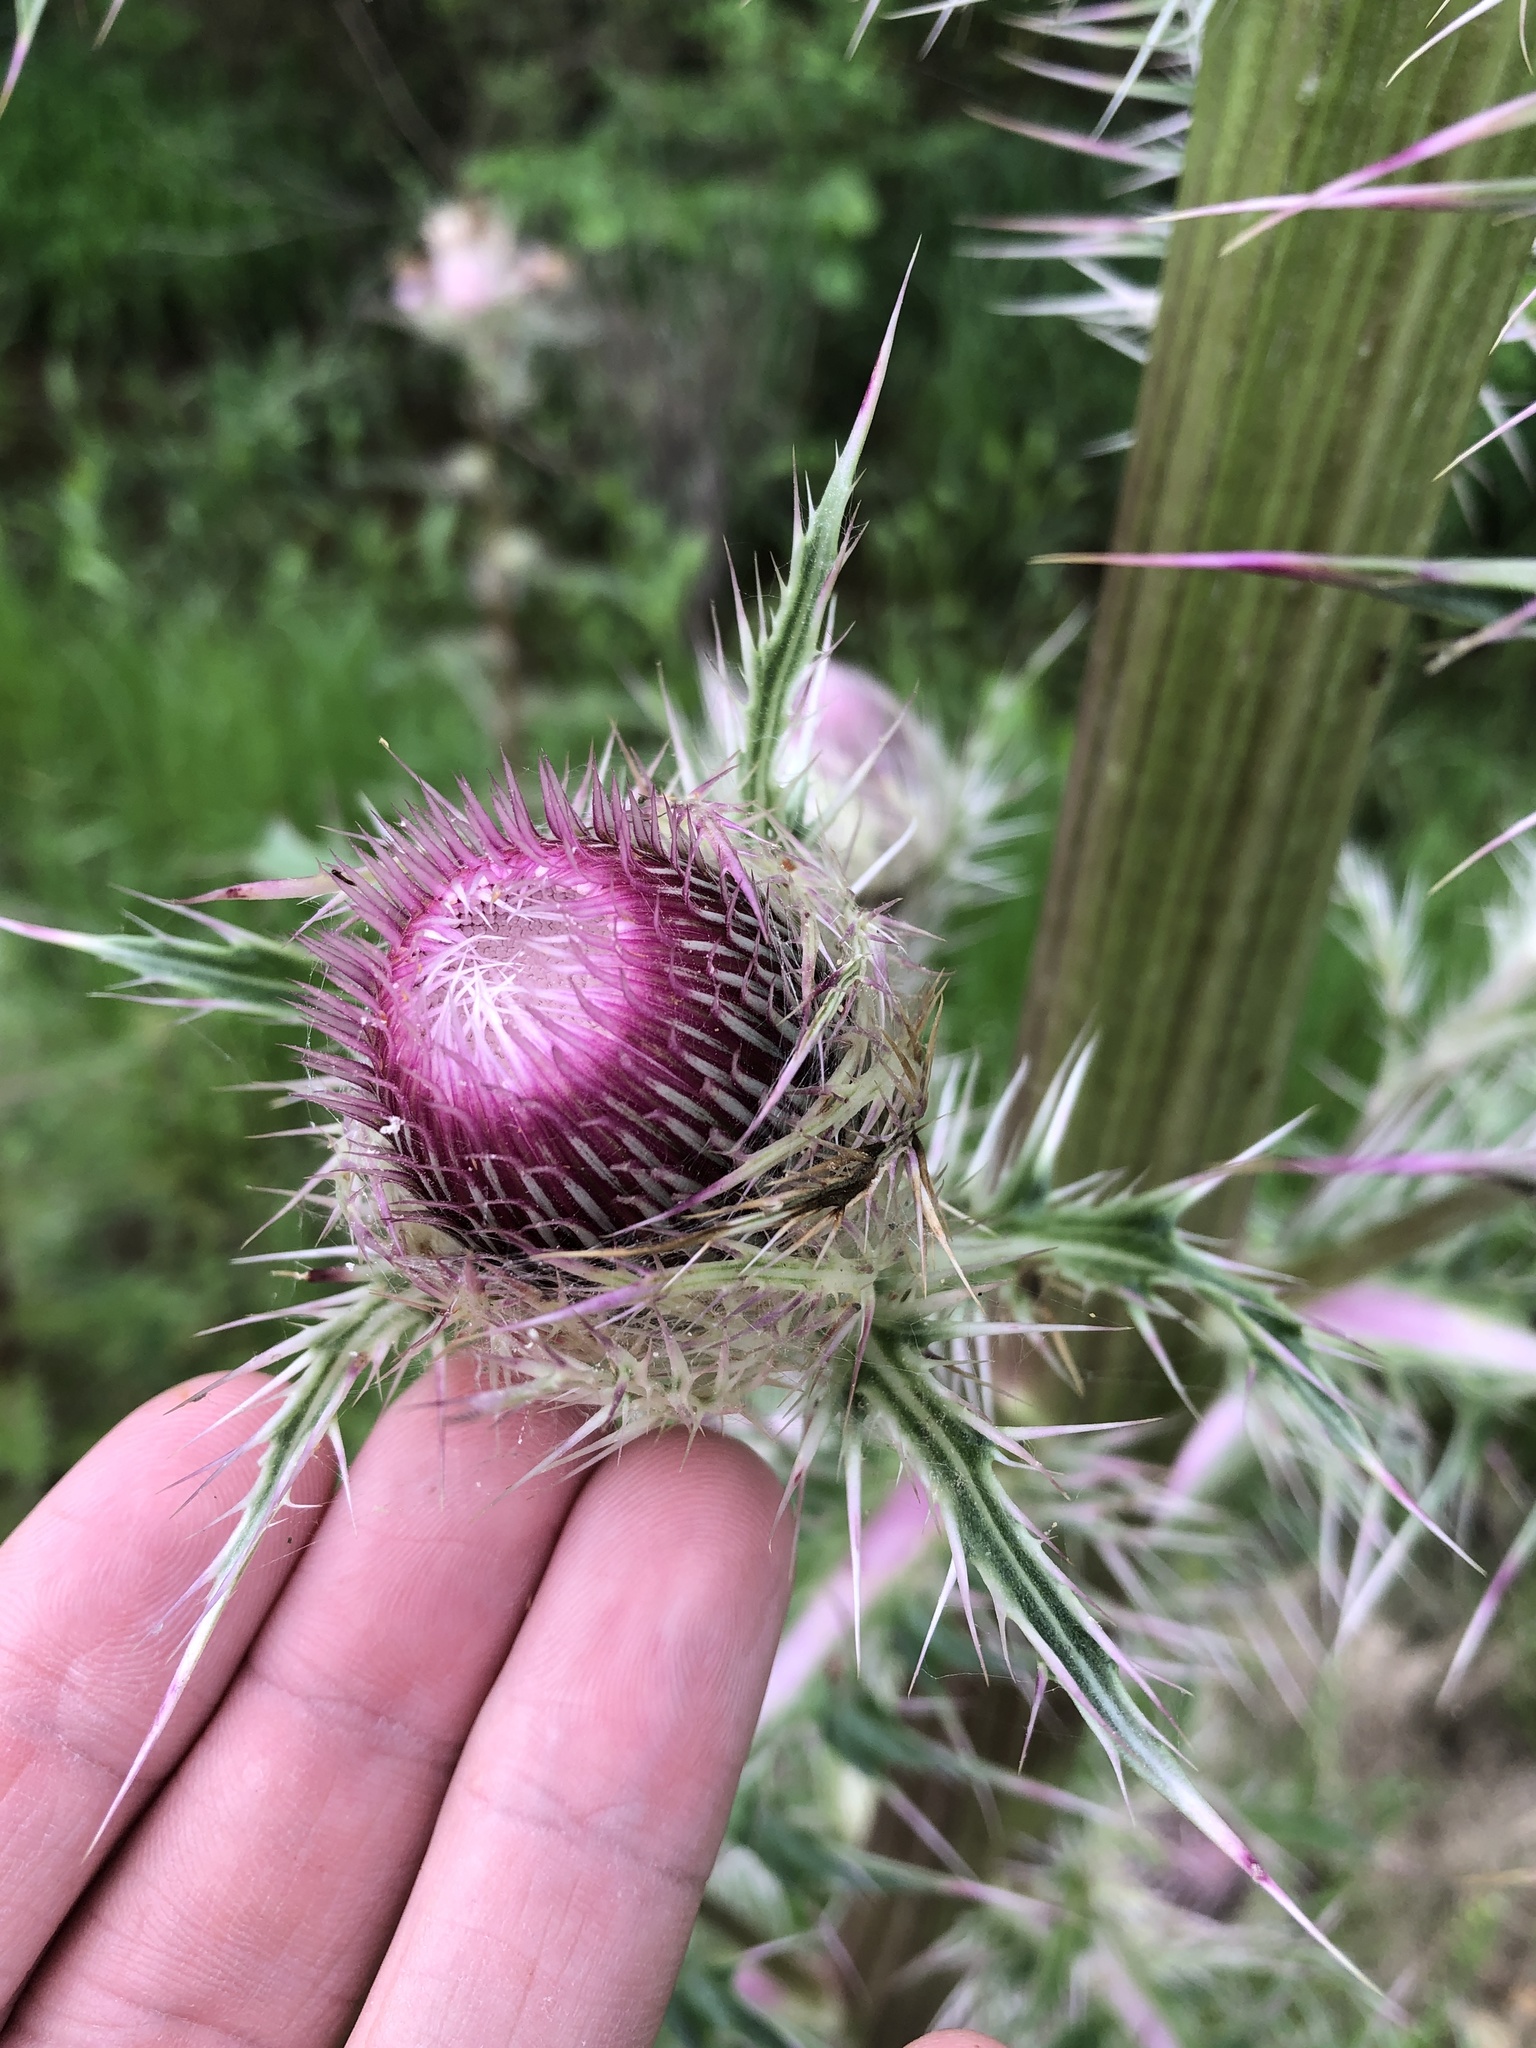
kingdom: Plantae
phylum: Tracheophyta
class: Magnoliopsida
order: Asterales
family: Asteraceae
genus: Cirsium
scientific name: Cirsium horridulum
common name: Bristly thistle
